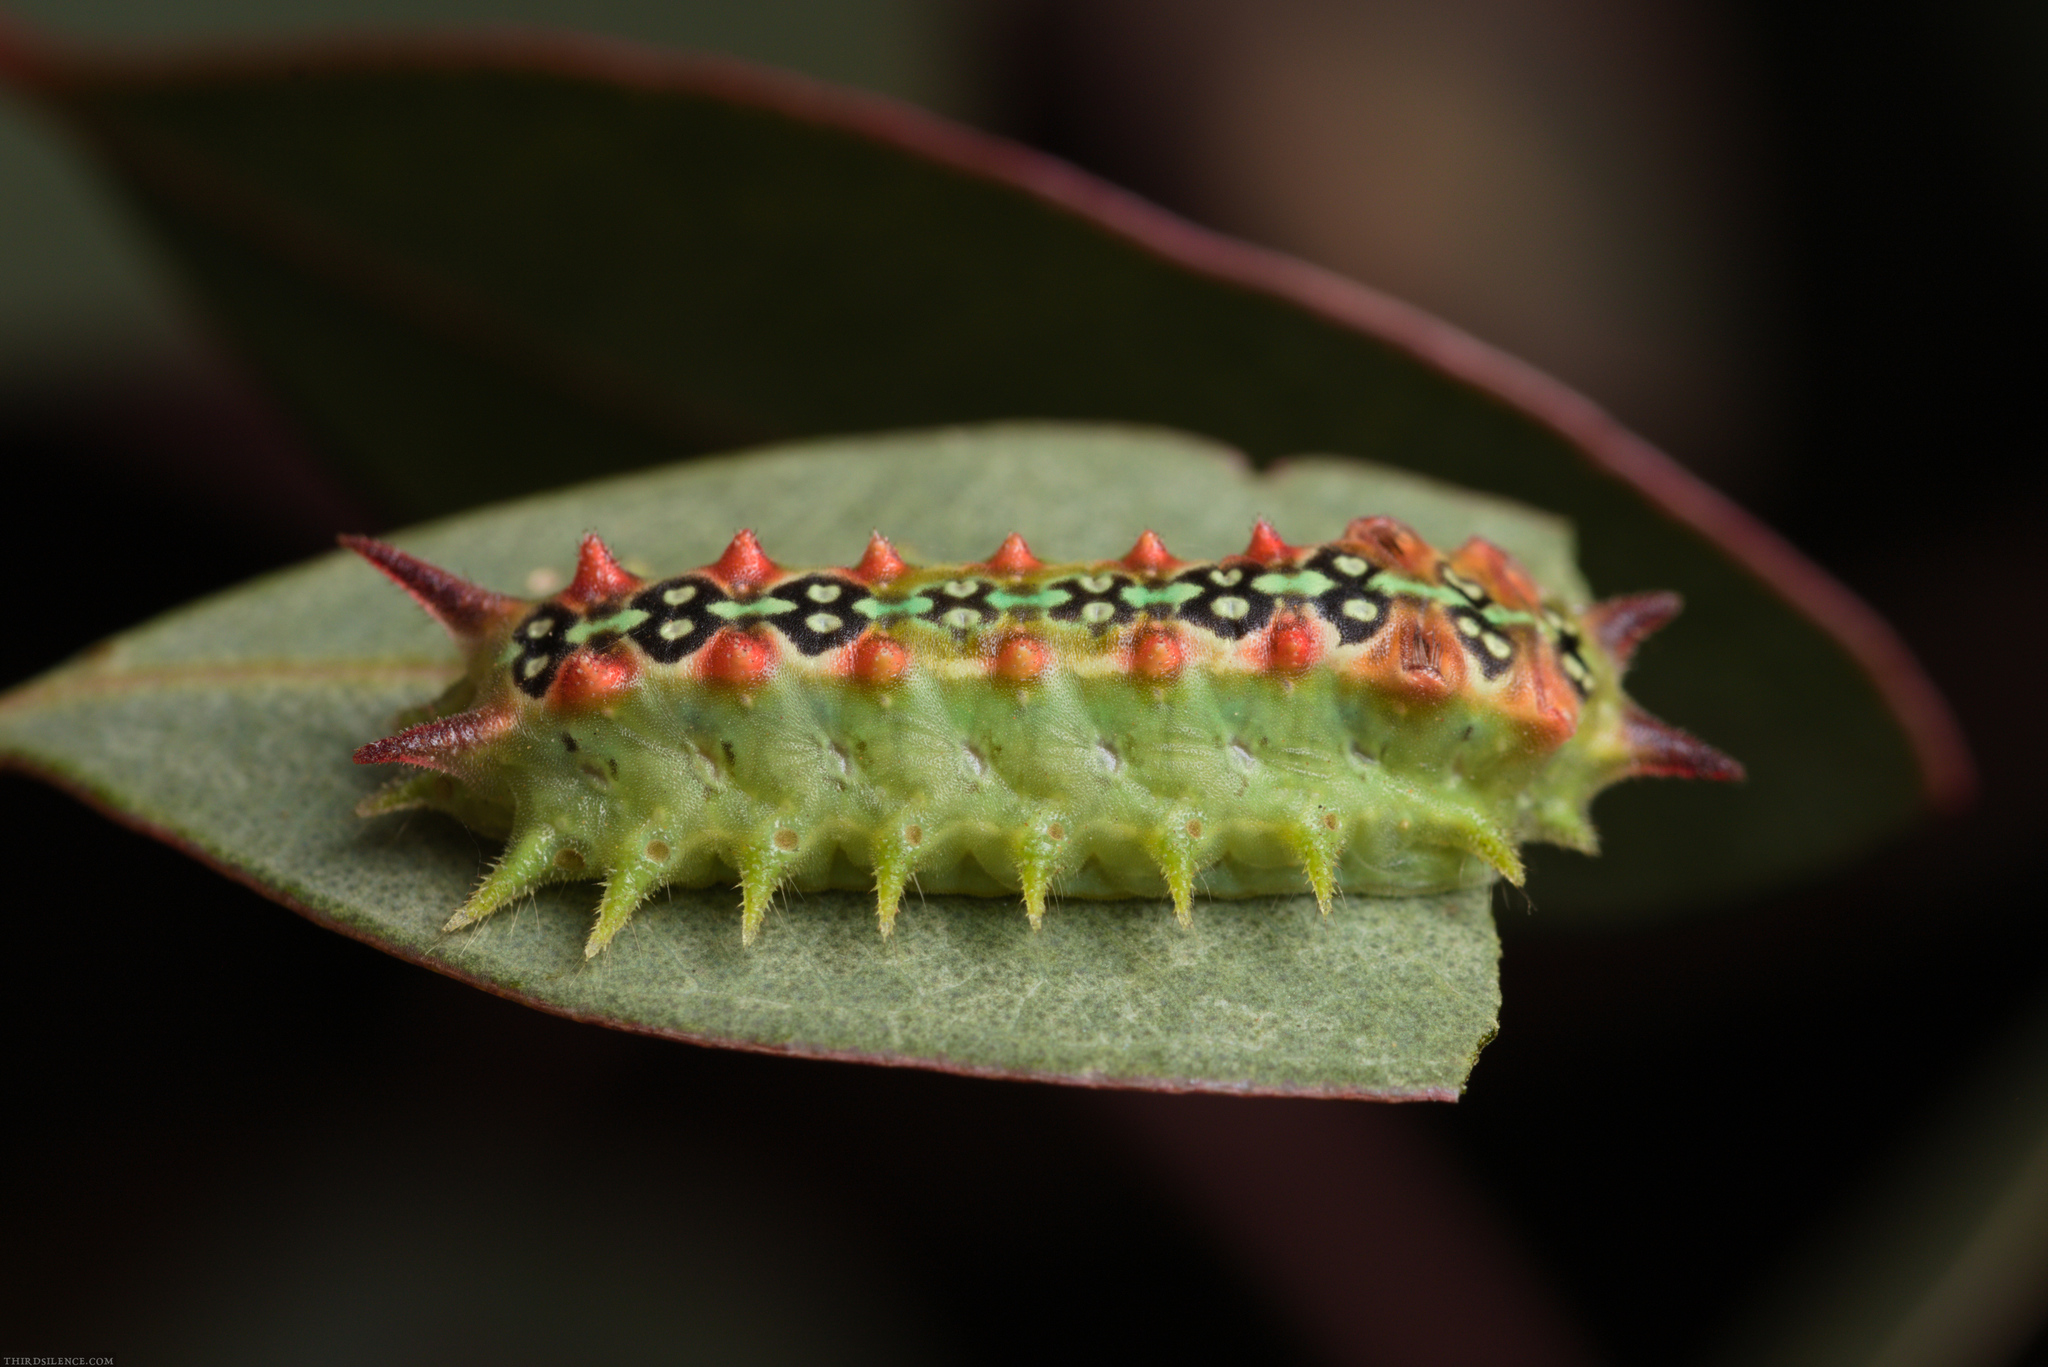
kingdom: Animalia
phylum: Arthropoda
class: Insecta
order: Lepidoptera
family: Limacodidae
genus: Doratifera
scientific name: Doratifera quadriguttata
